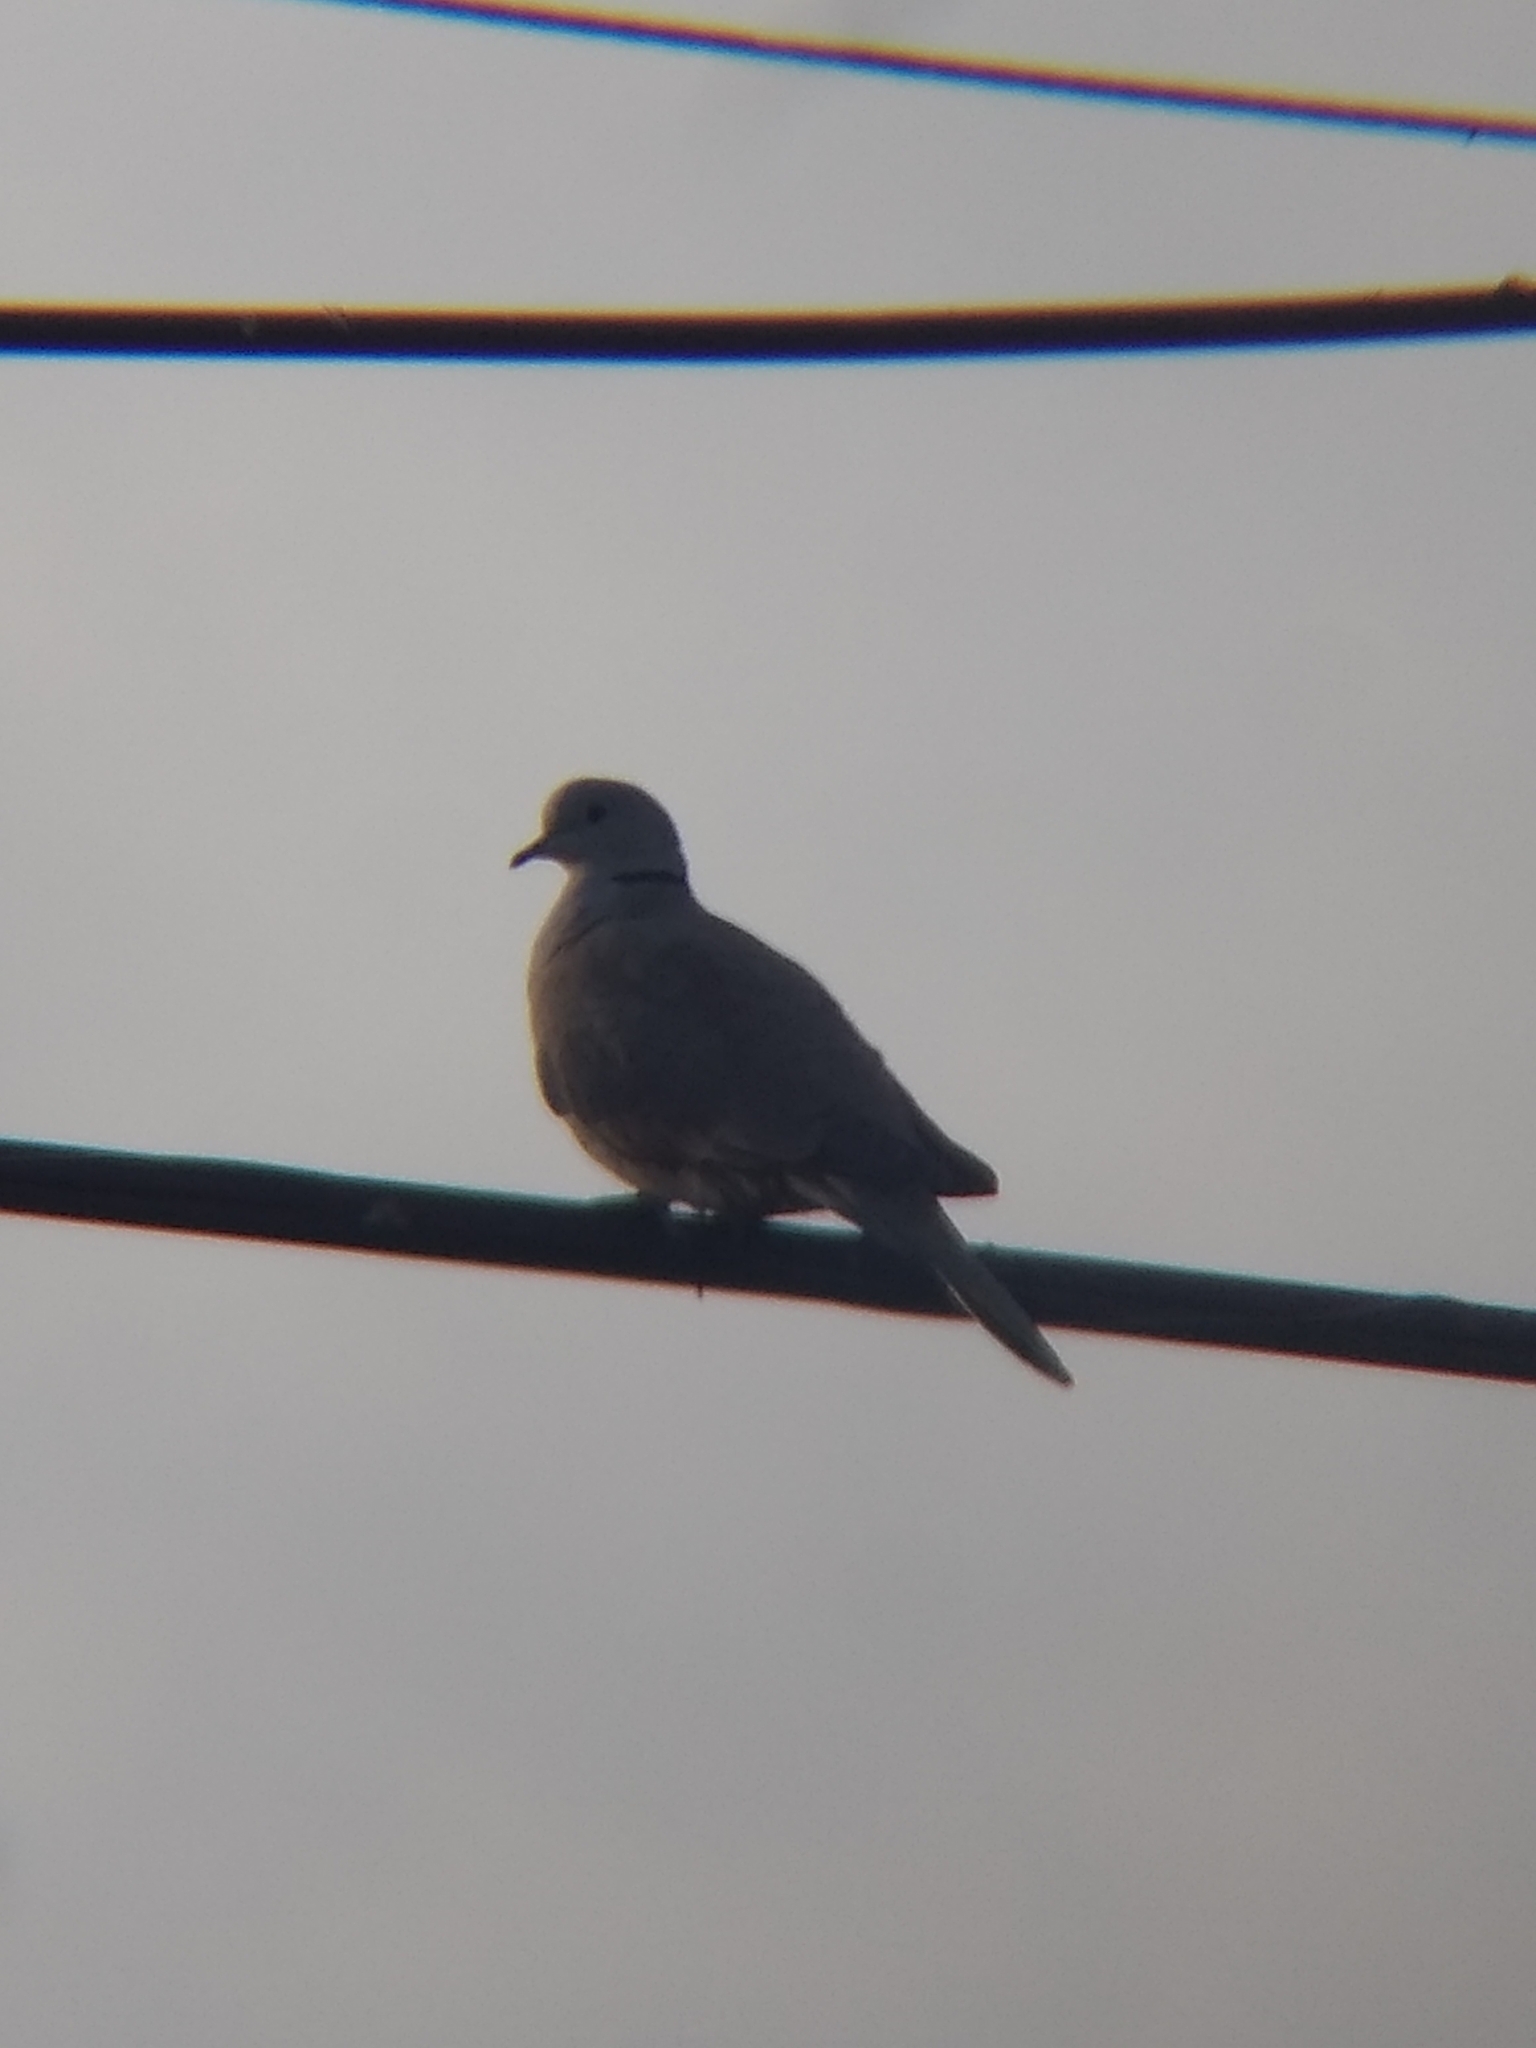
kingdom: Animalia
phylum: Chordata
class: Aves
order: Columbiformes
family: Columbidae
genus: Streptopelia
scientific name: Streptopelia decaocto
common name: Eurasian collared dove
